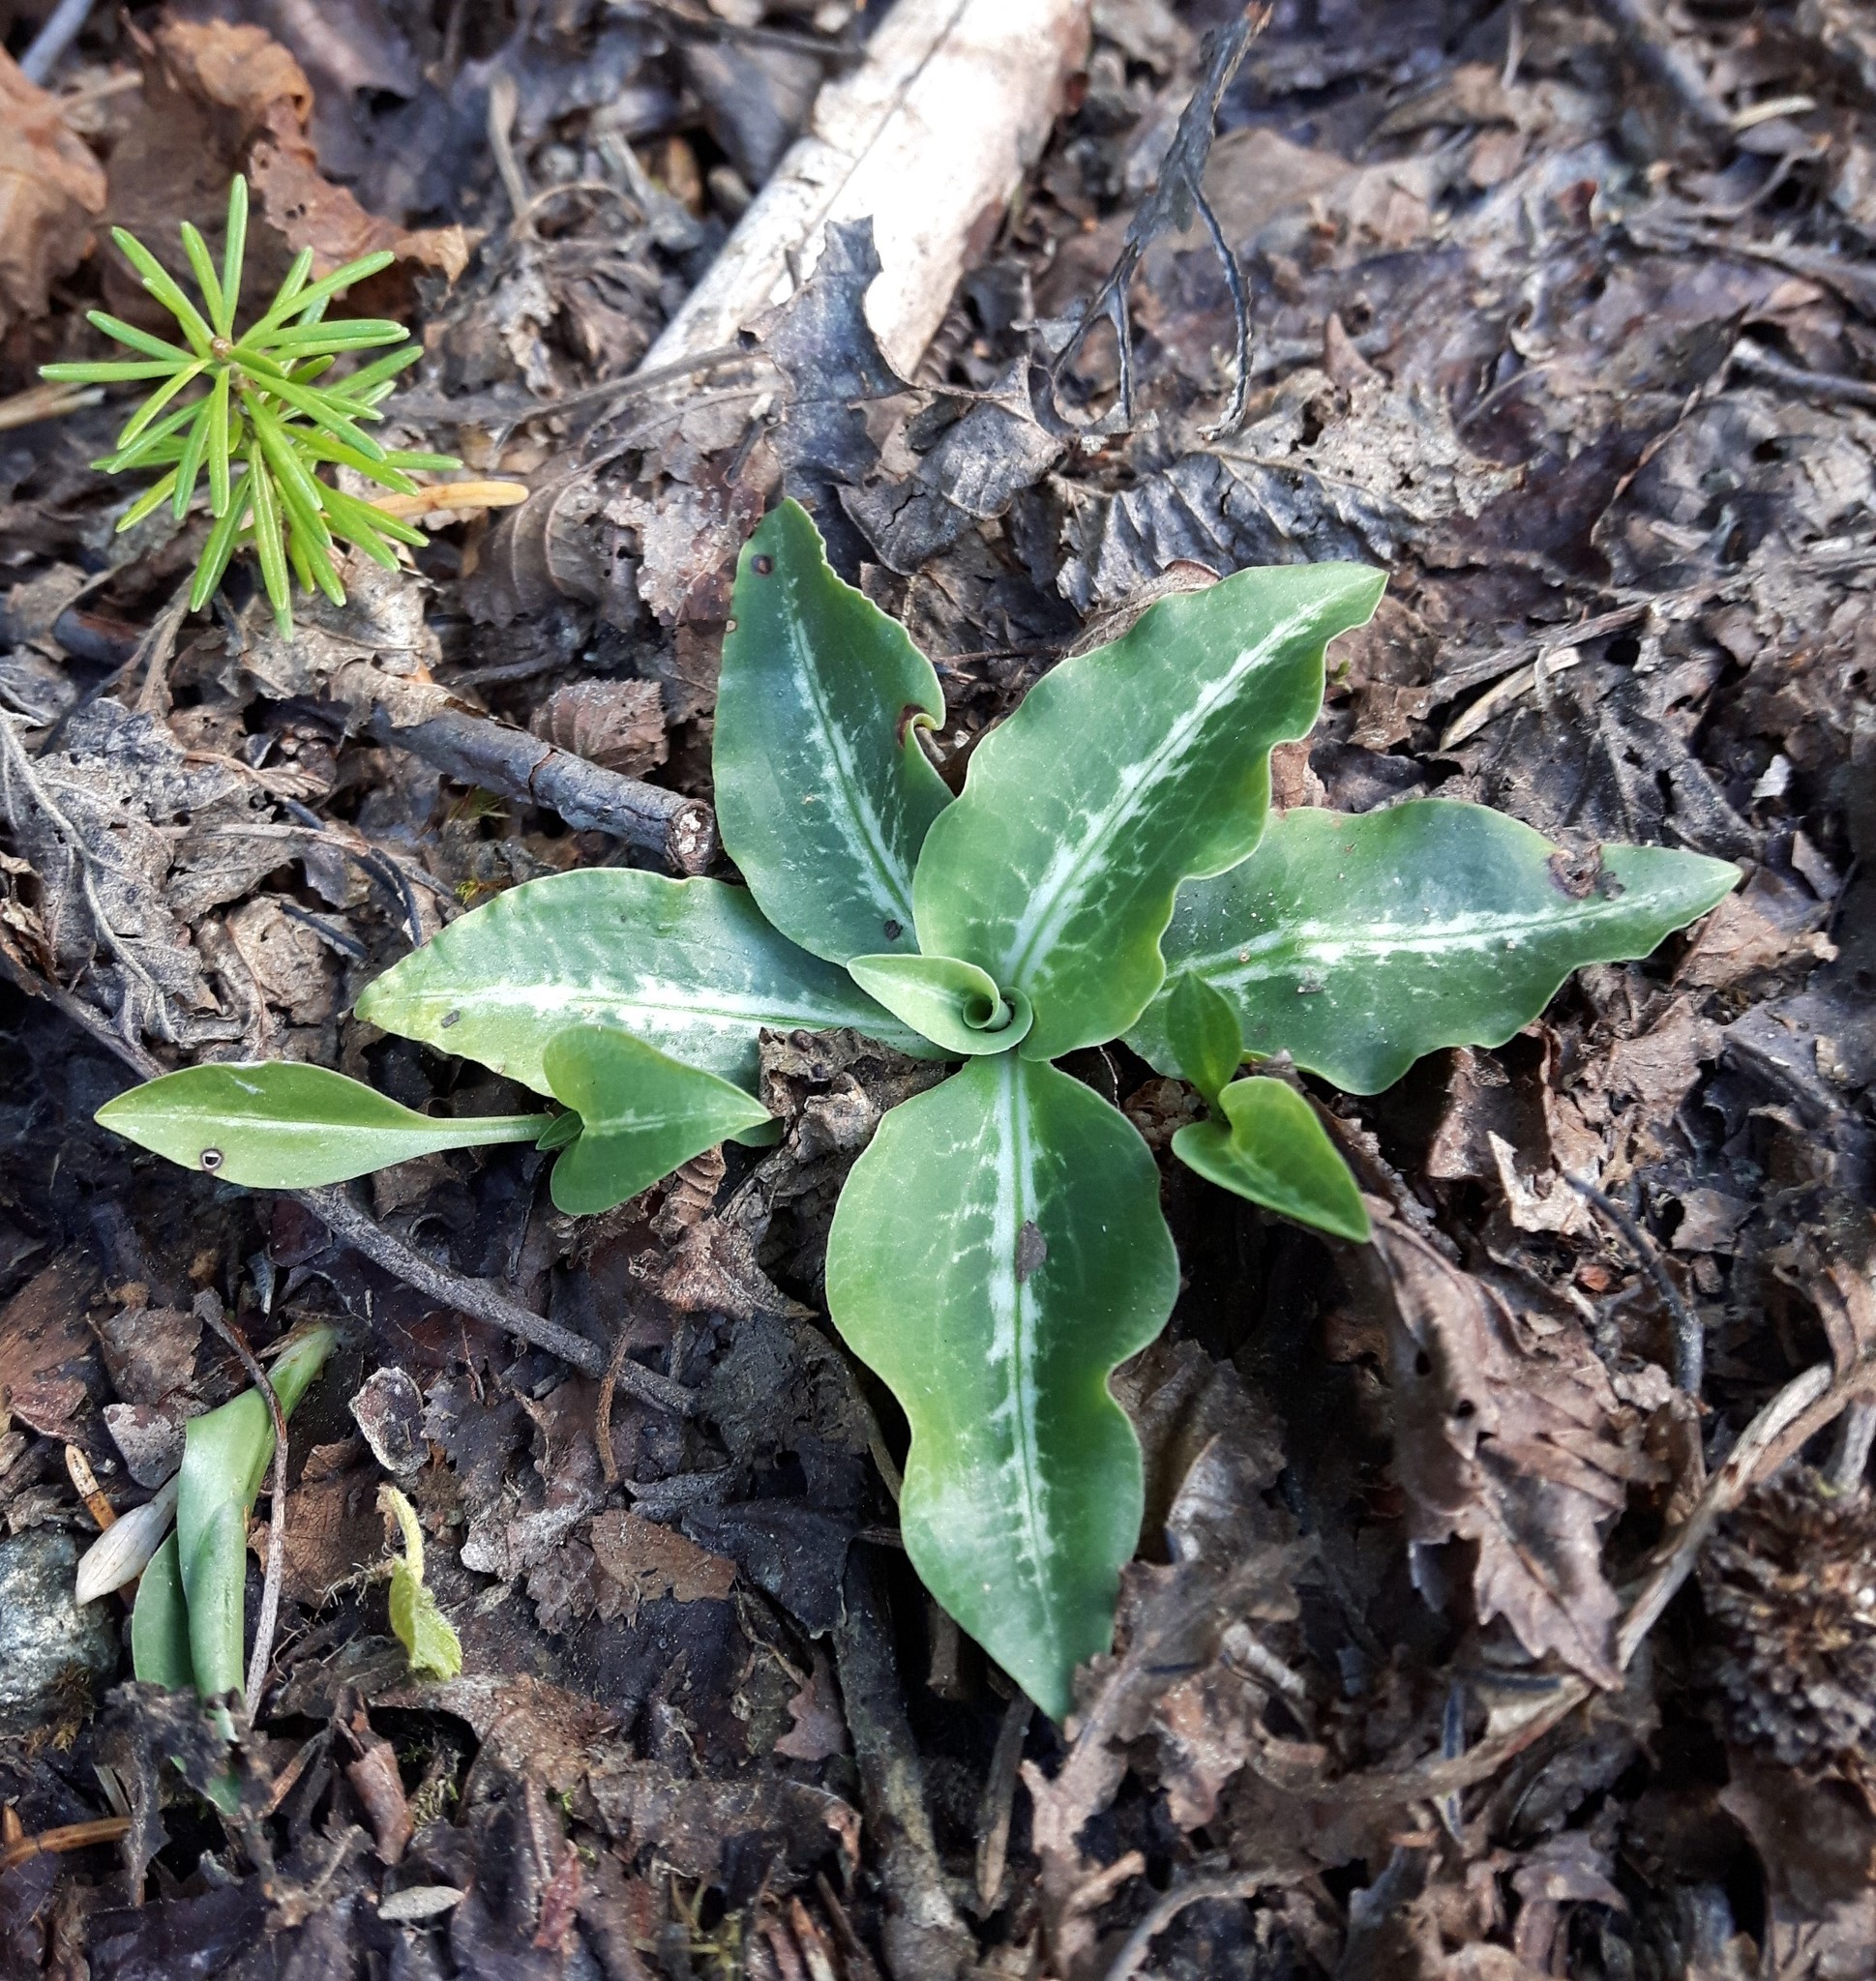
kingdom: Plantae
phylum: Tracheophyta
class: Liliopsida
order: Asparagales
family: Orchidaceae
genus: Goodyera
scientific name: Goodyera oblongifolia
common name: Giant rattlesnake-plantain
